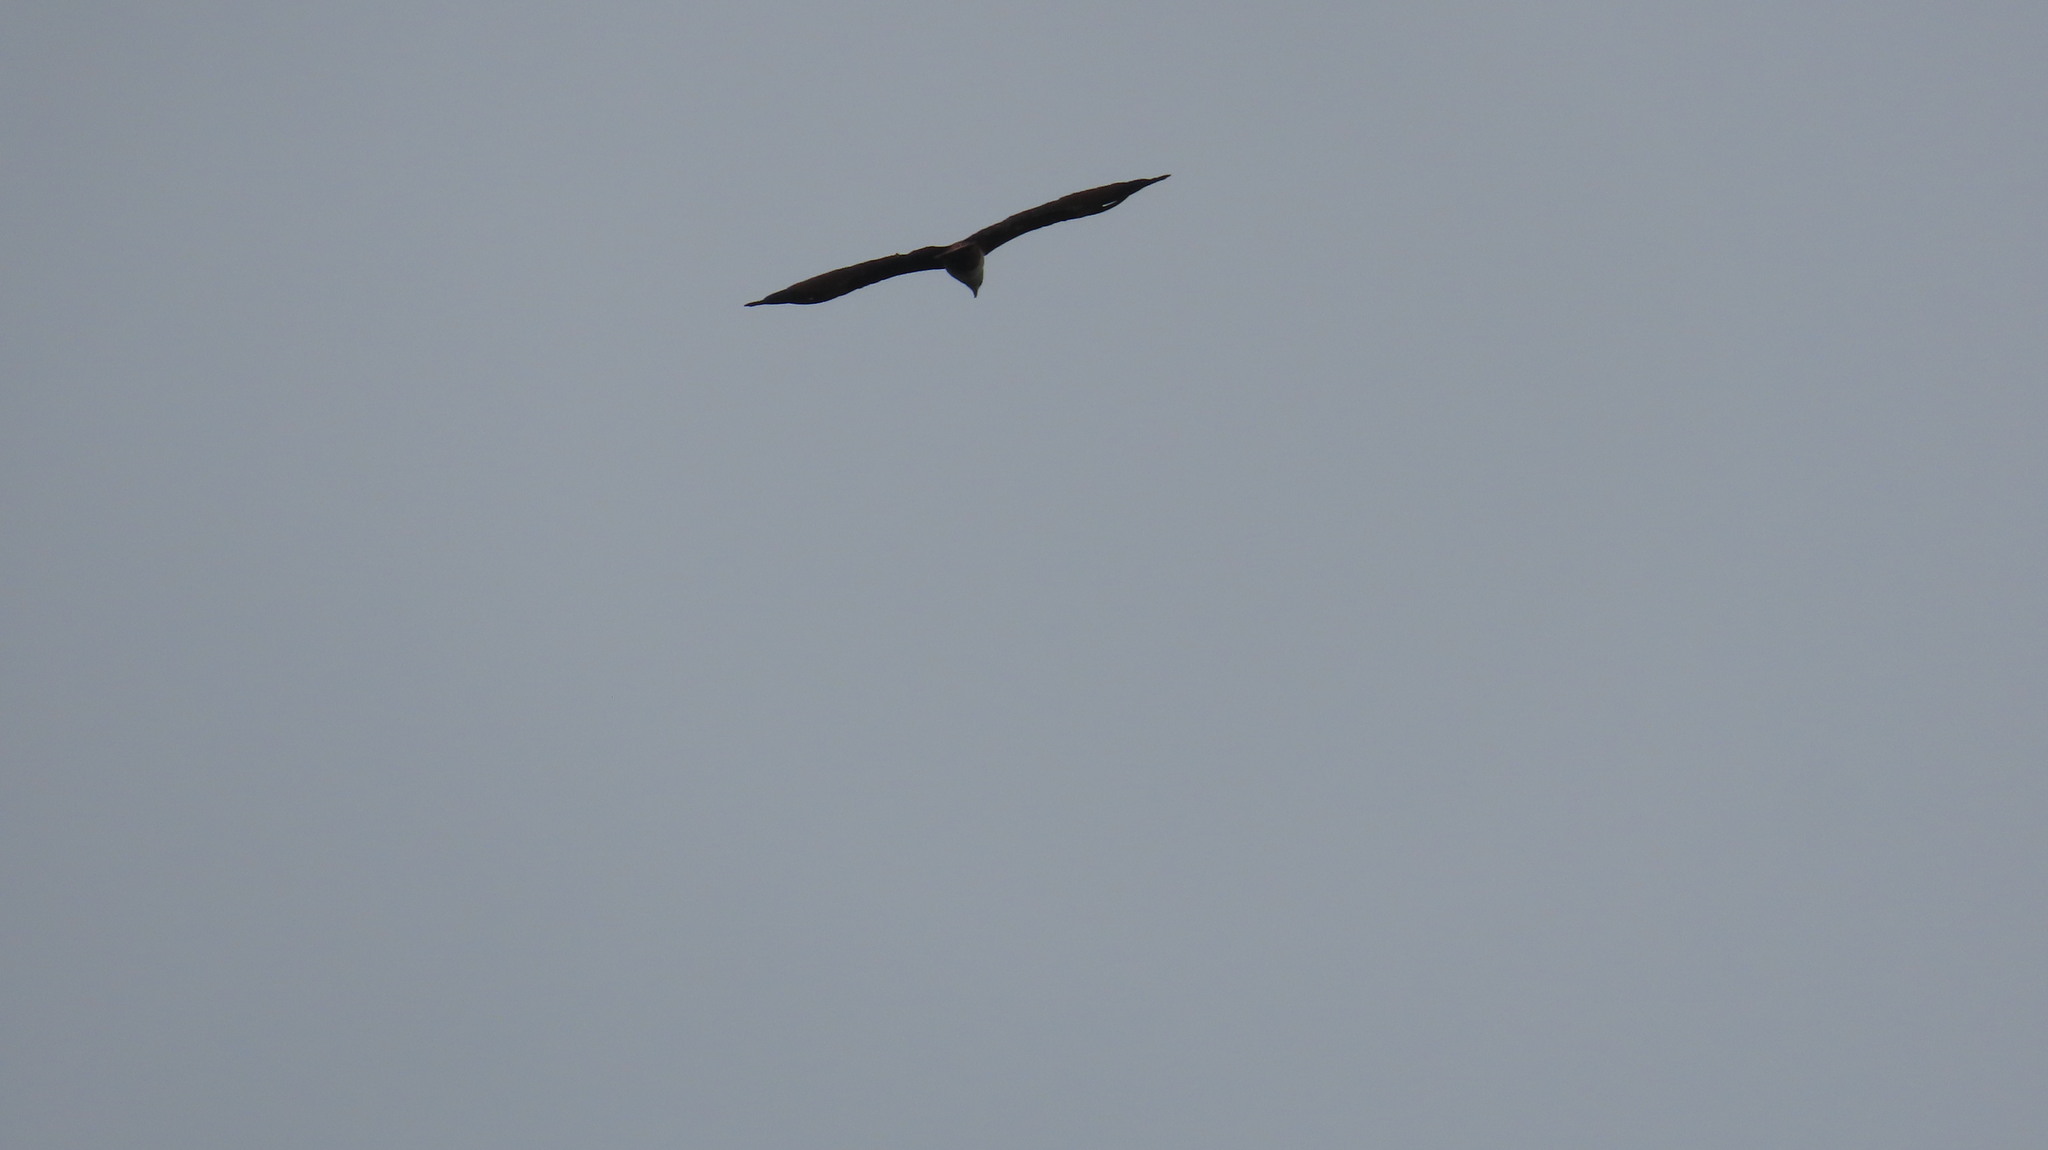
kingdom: Animalia
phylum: Chordata
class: Aves
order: Accipitriformes
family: Accipitridae
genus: Haliastur
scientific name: Haliastur indus
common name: Brahminy kite
